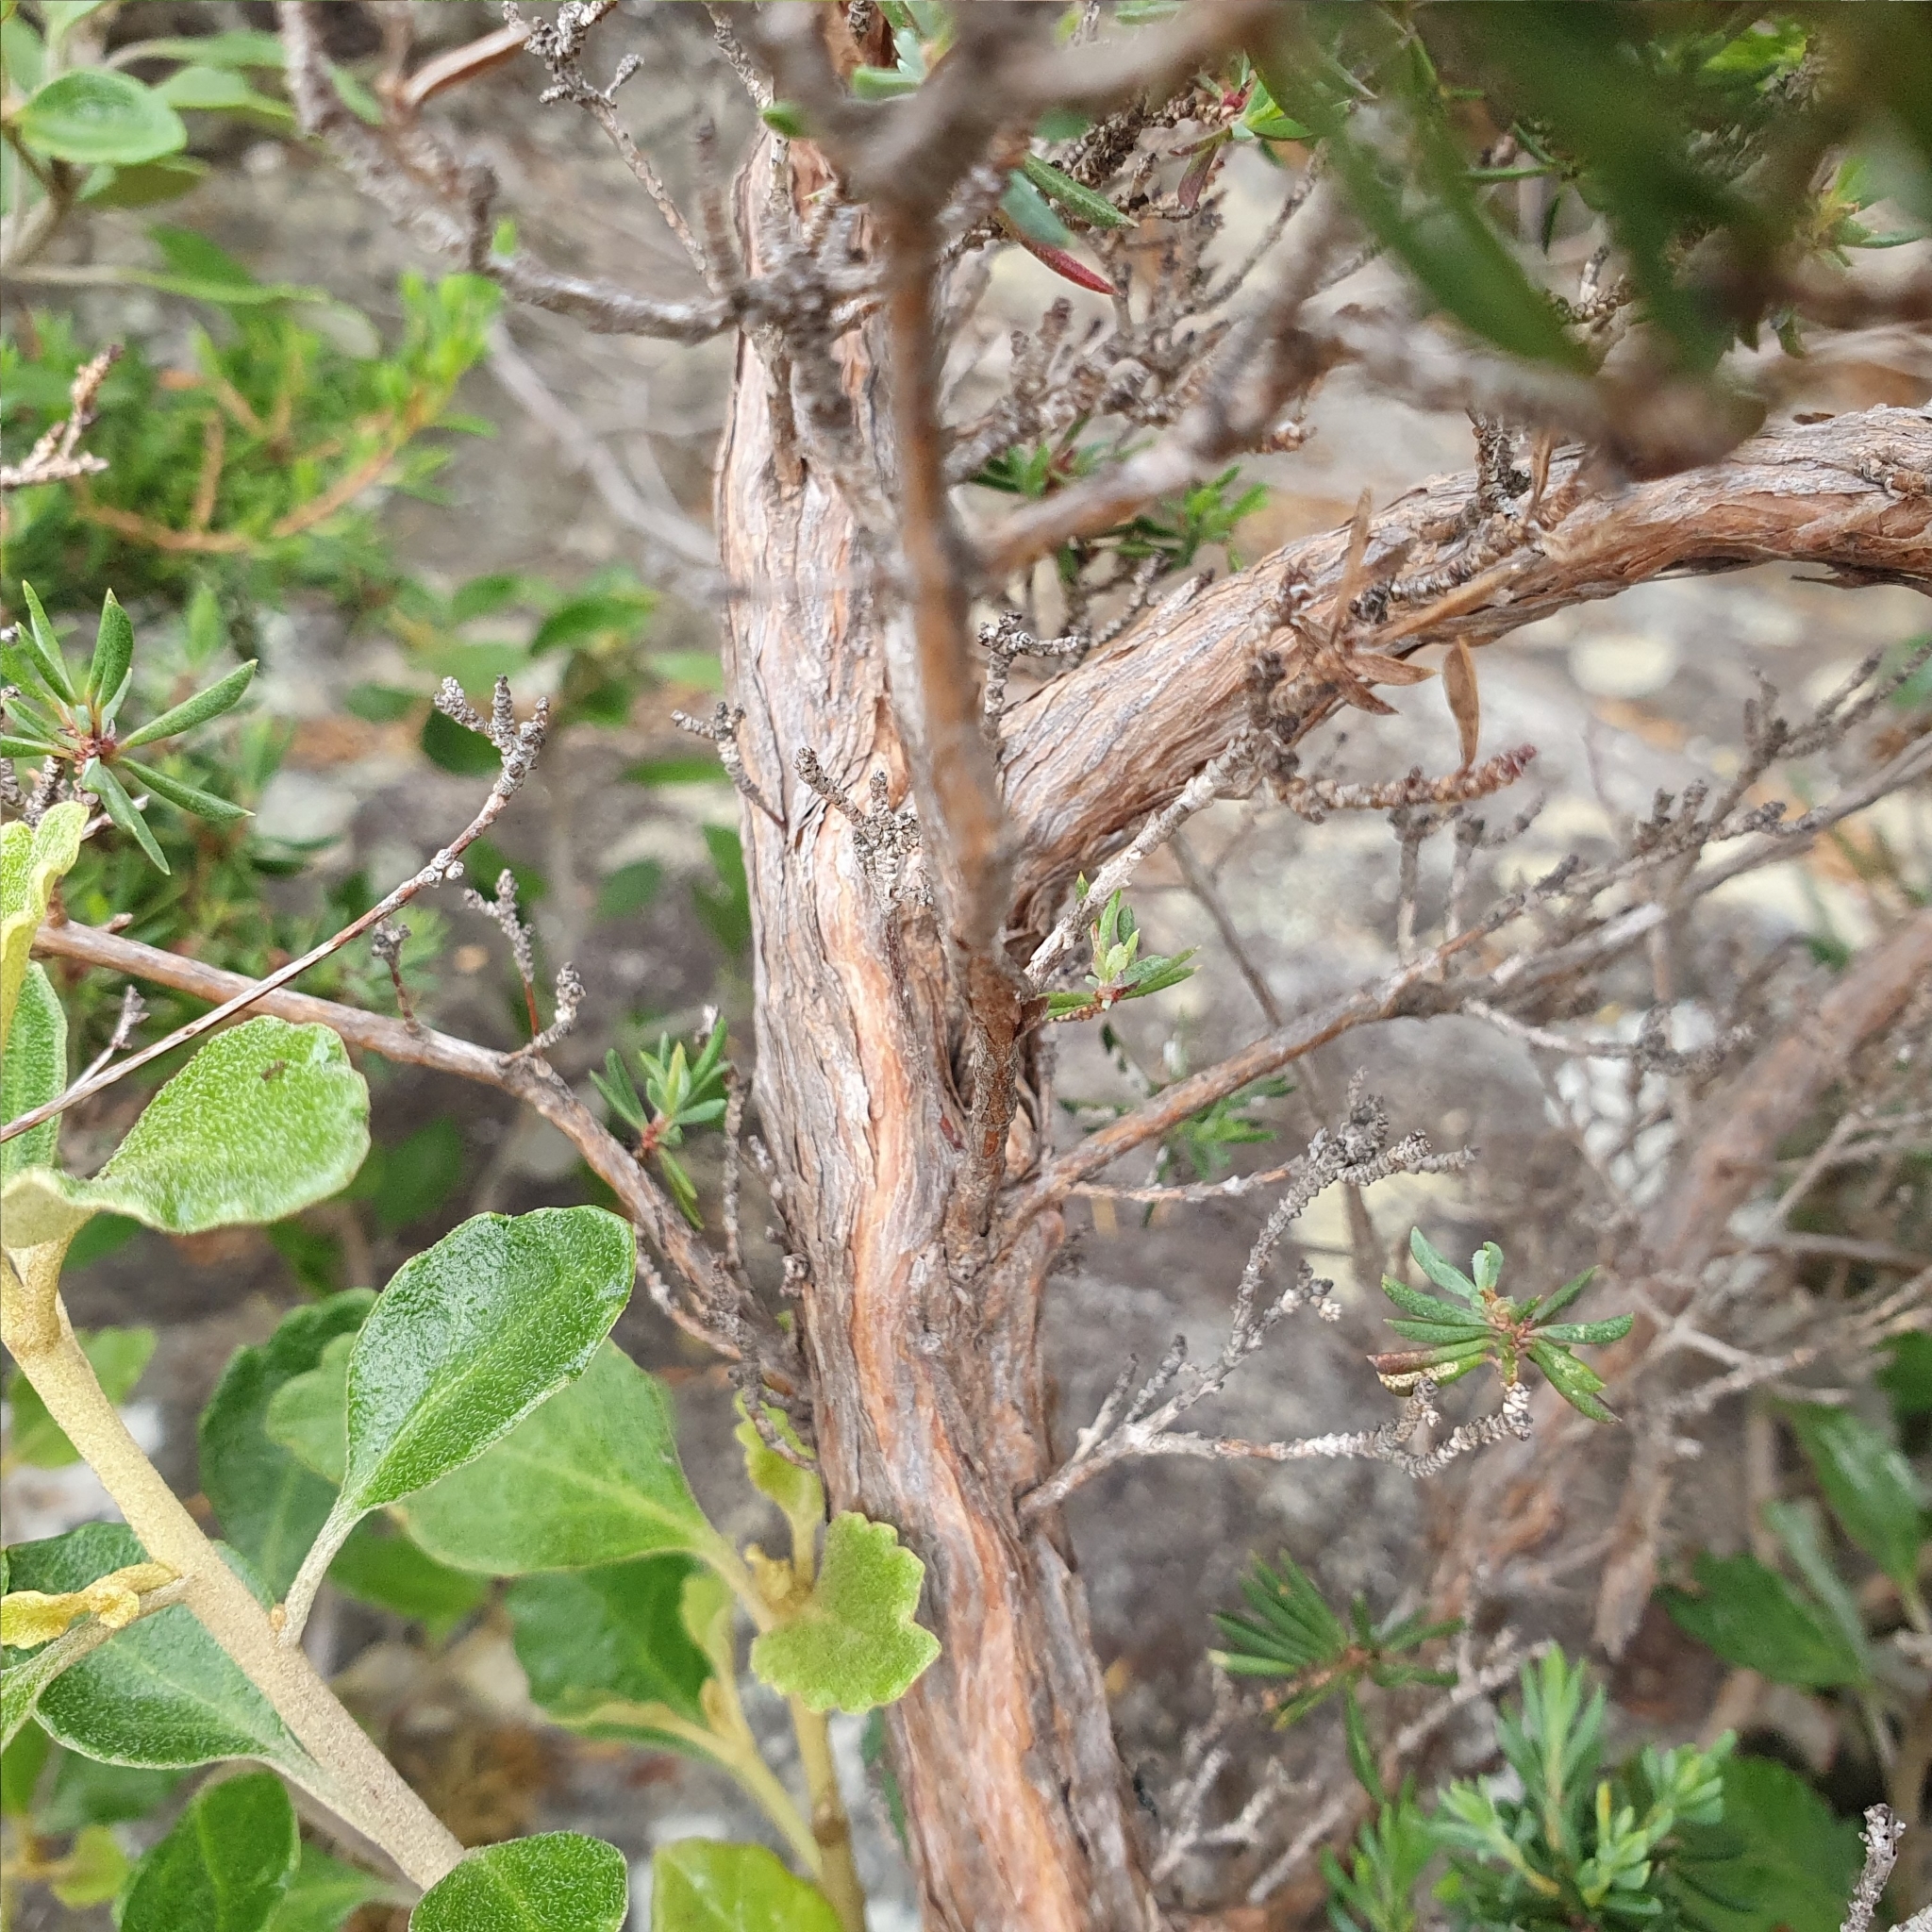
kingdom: Plantae
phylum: Tracheophyta
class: Magnoliopsida
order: Myrtales
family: Myrtaceae
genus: Darwinia
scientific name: Darwinia leptantha
